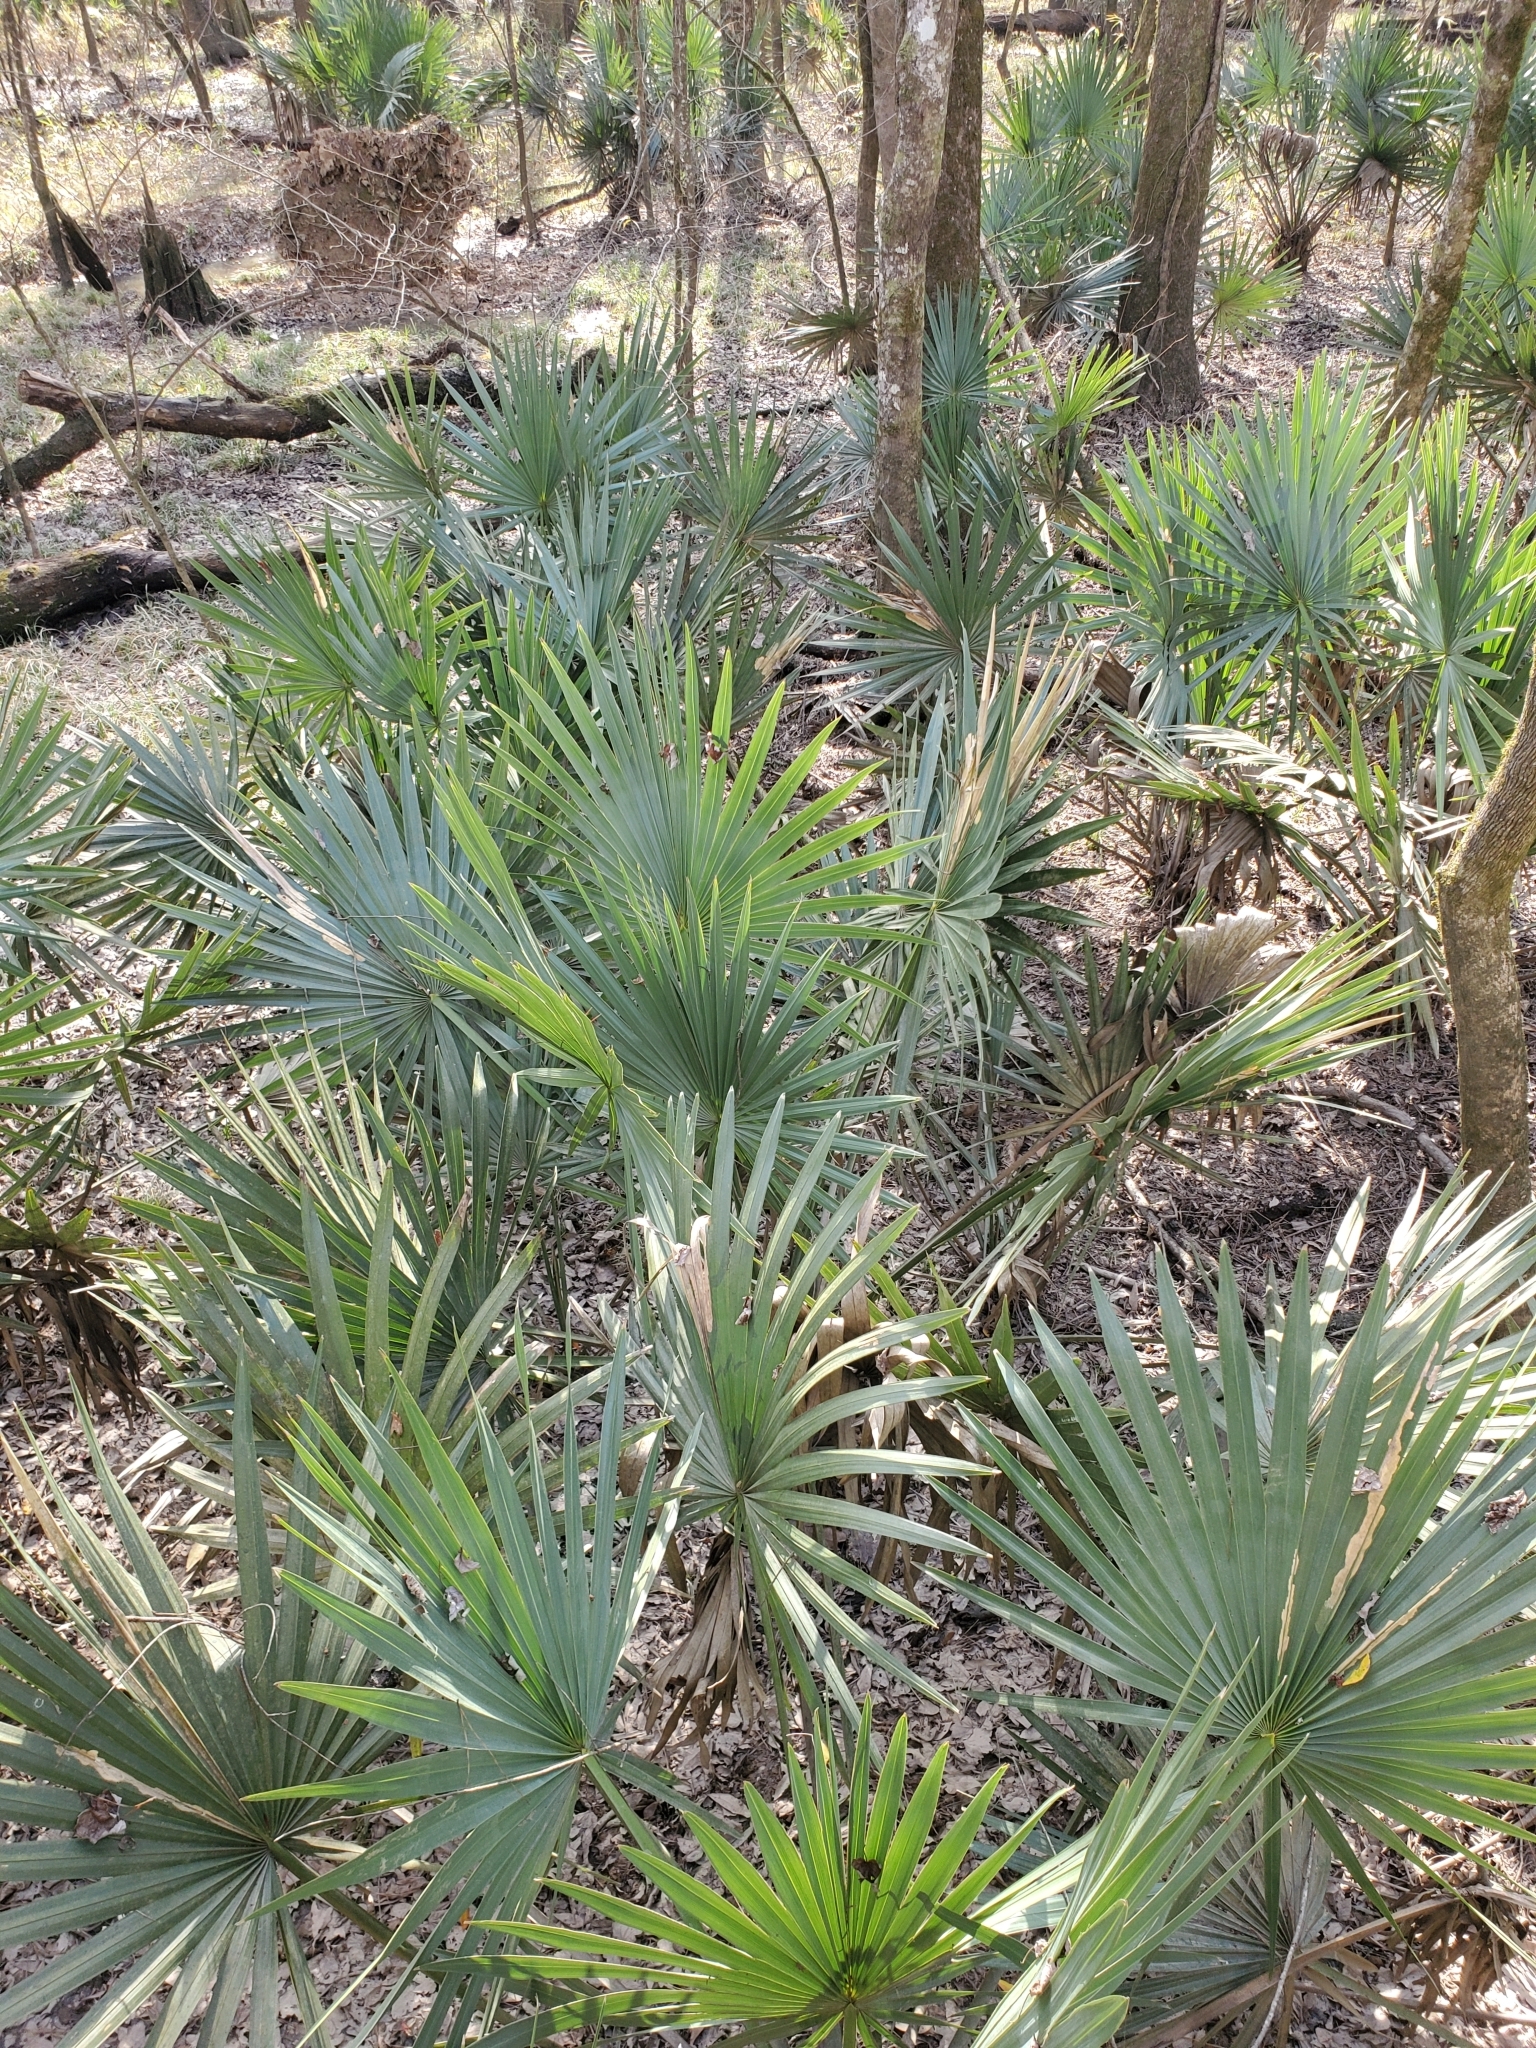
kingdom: Plantae
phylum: Tracheophyta
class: Liliopsida
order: Arecales
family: Arecaceae
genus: Sabal
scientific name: Sabal minor
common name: Dwarf palmetto
